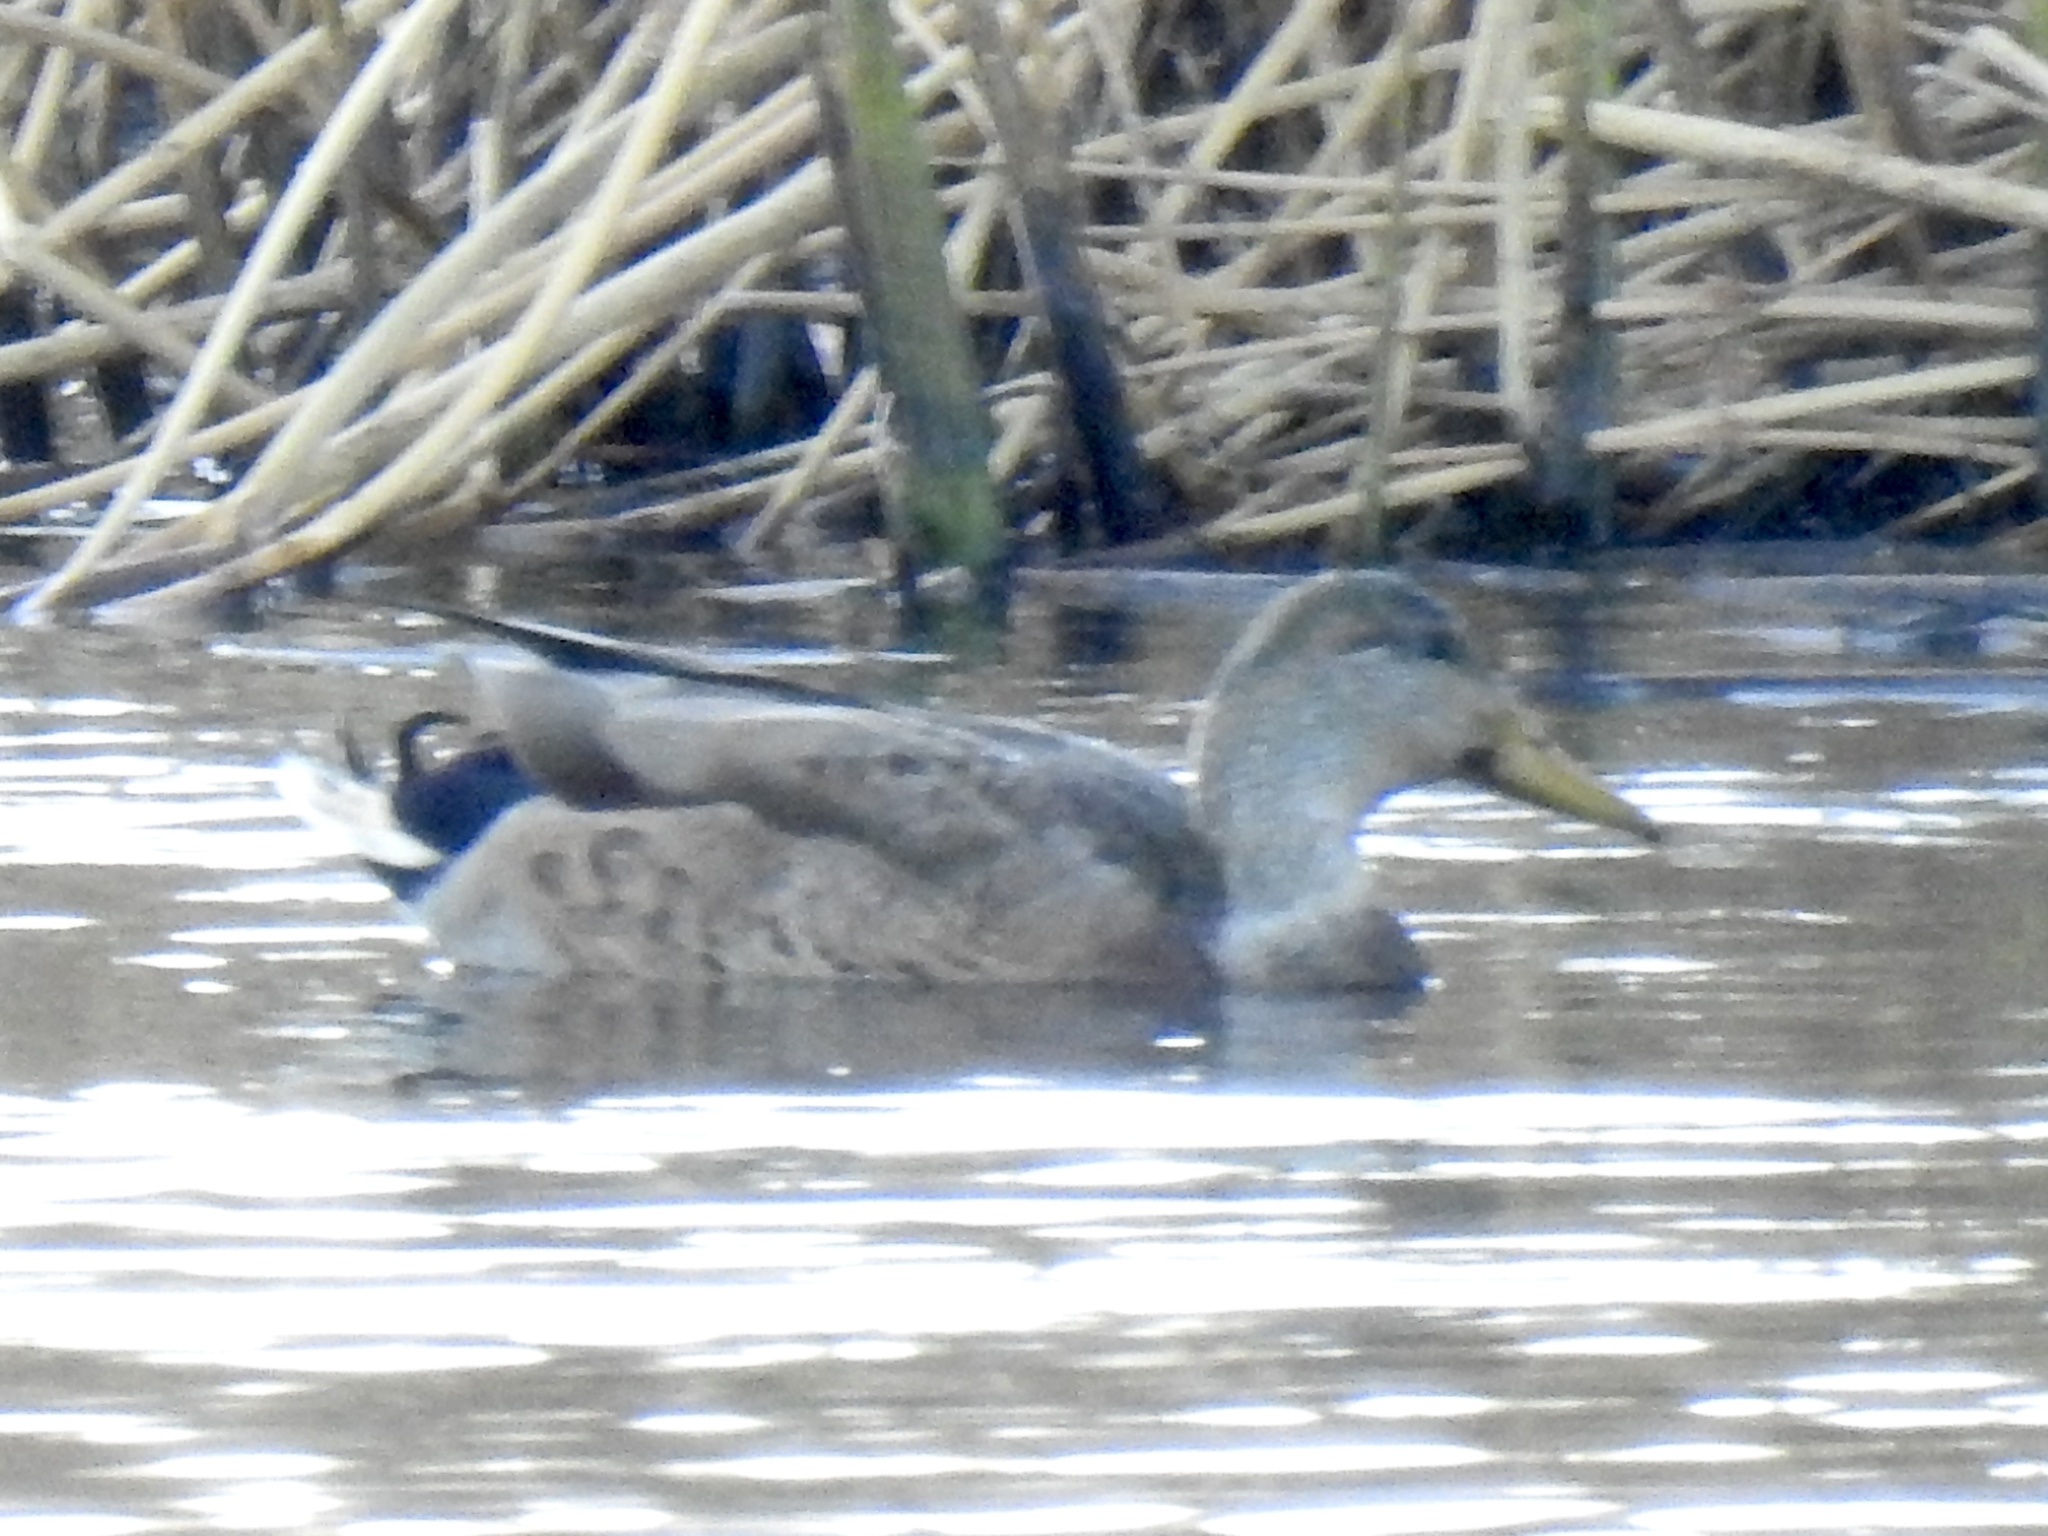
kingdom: Animalia
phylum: Chordata
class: Aves
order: Anseriformes
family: Anatidae
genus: Anas
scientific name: Anas
